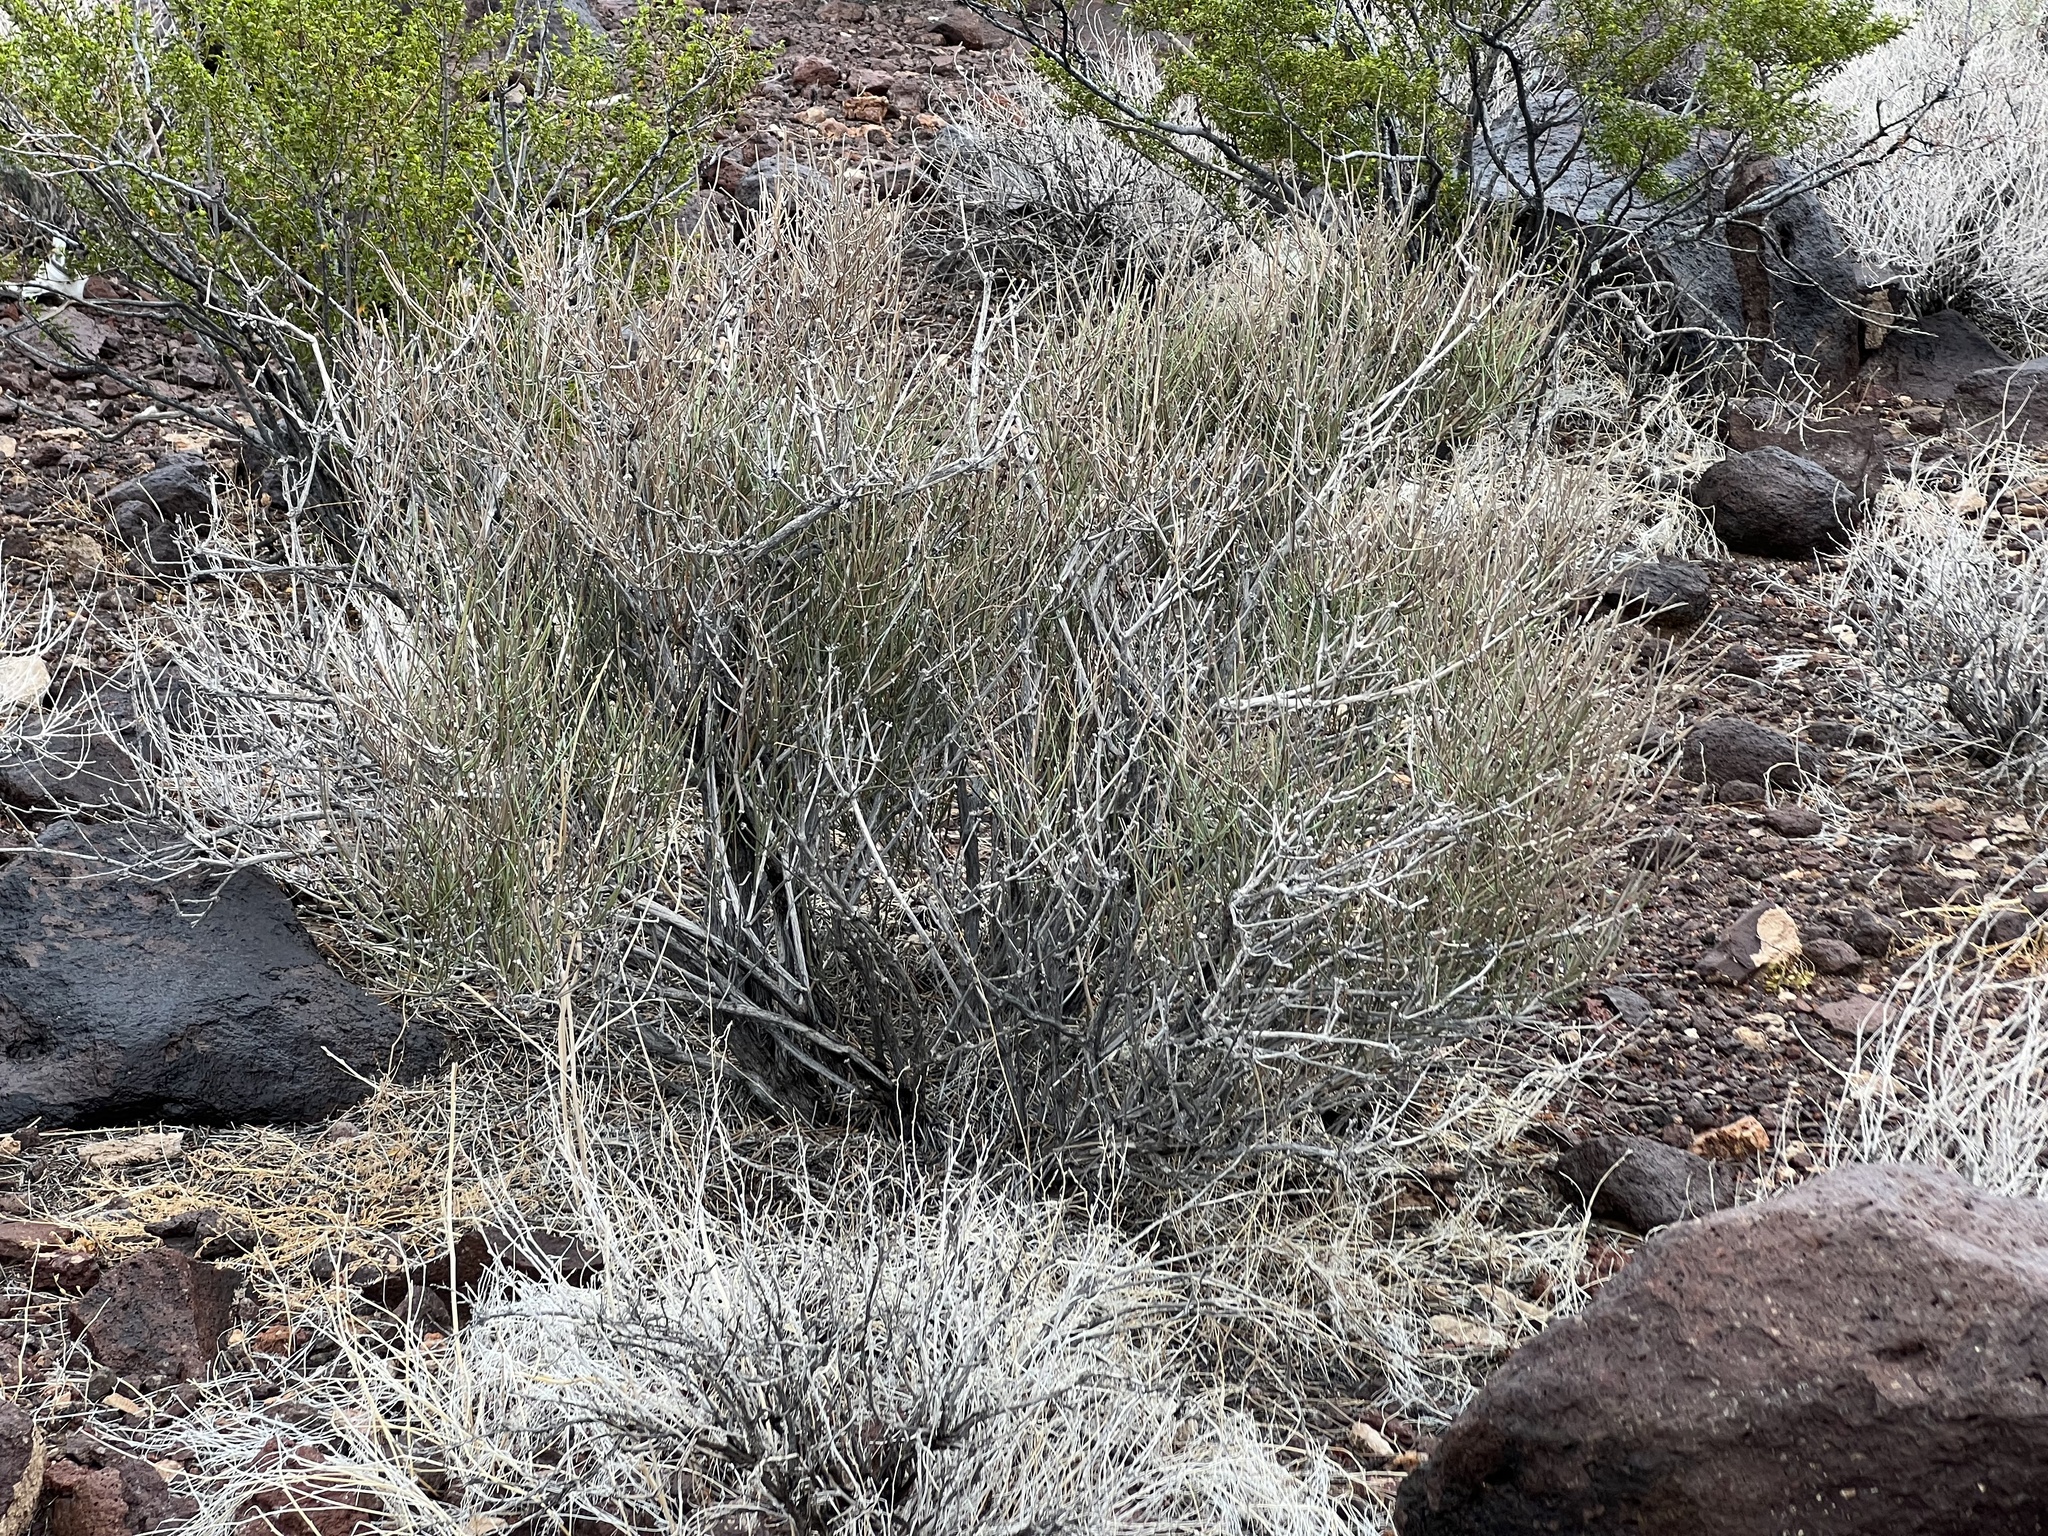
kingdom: Plantae
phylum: Tracheophyta
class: Gnetopsida
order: Ephedrales
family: Ephedraceae
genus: Ephedra
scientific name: Ephedra nevadensis
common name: Gray ephedra
